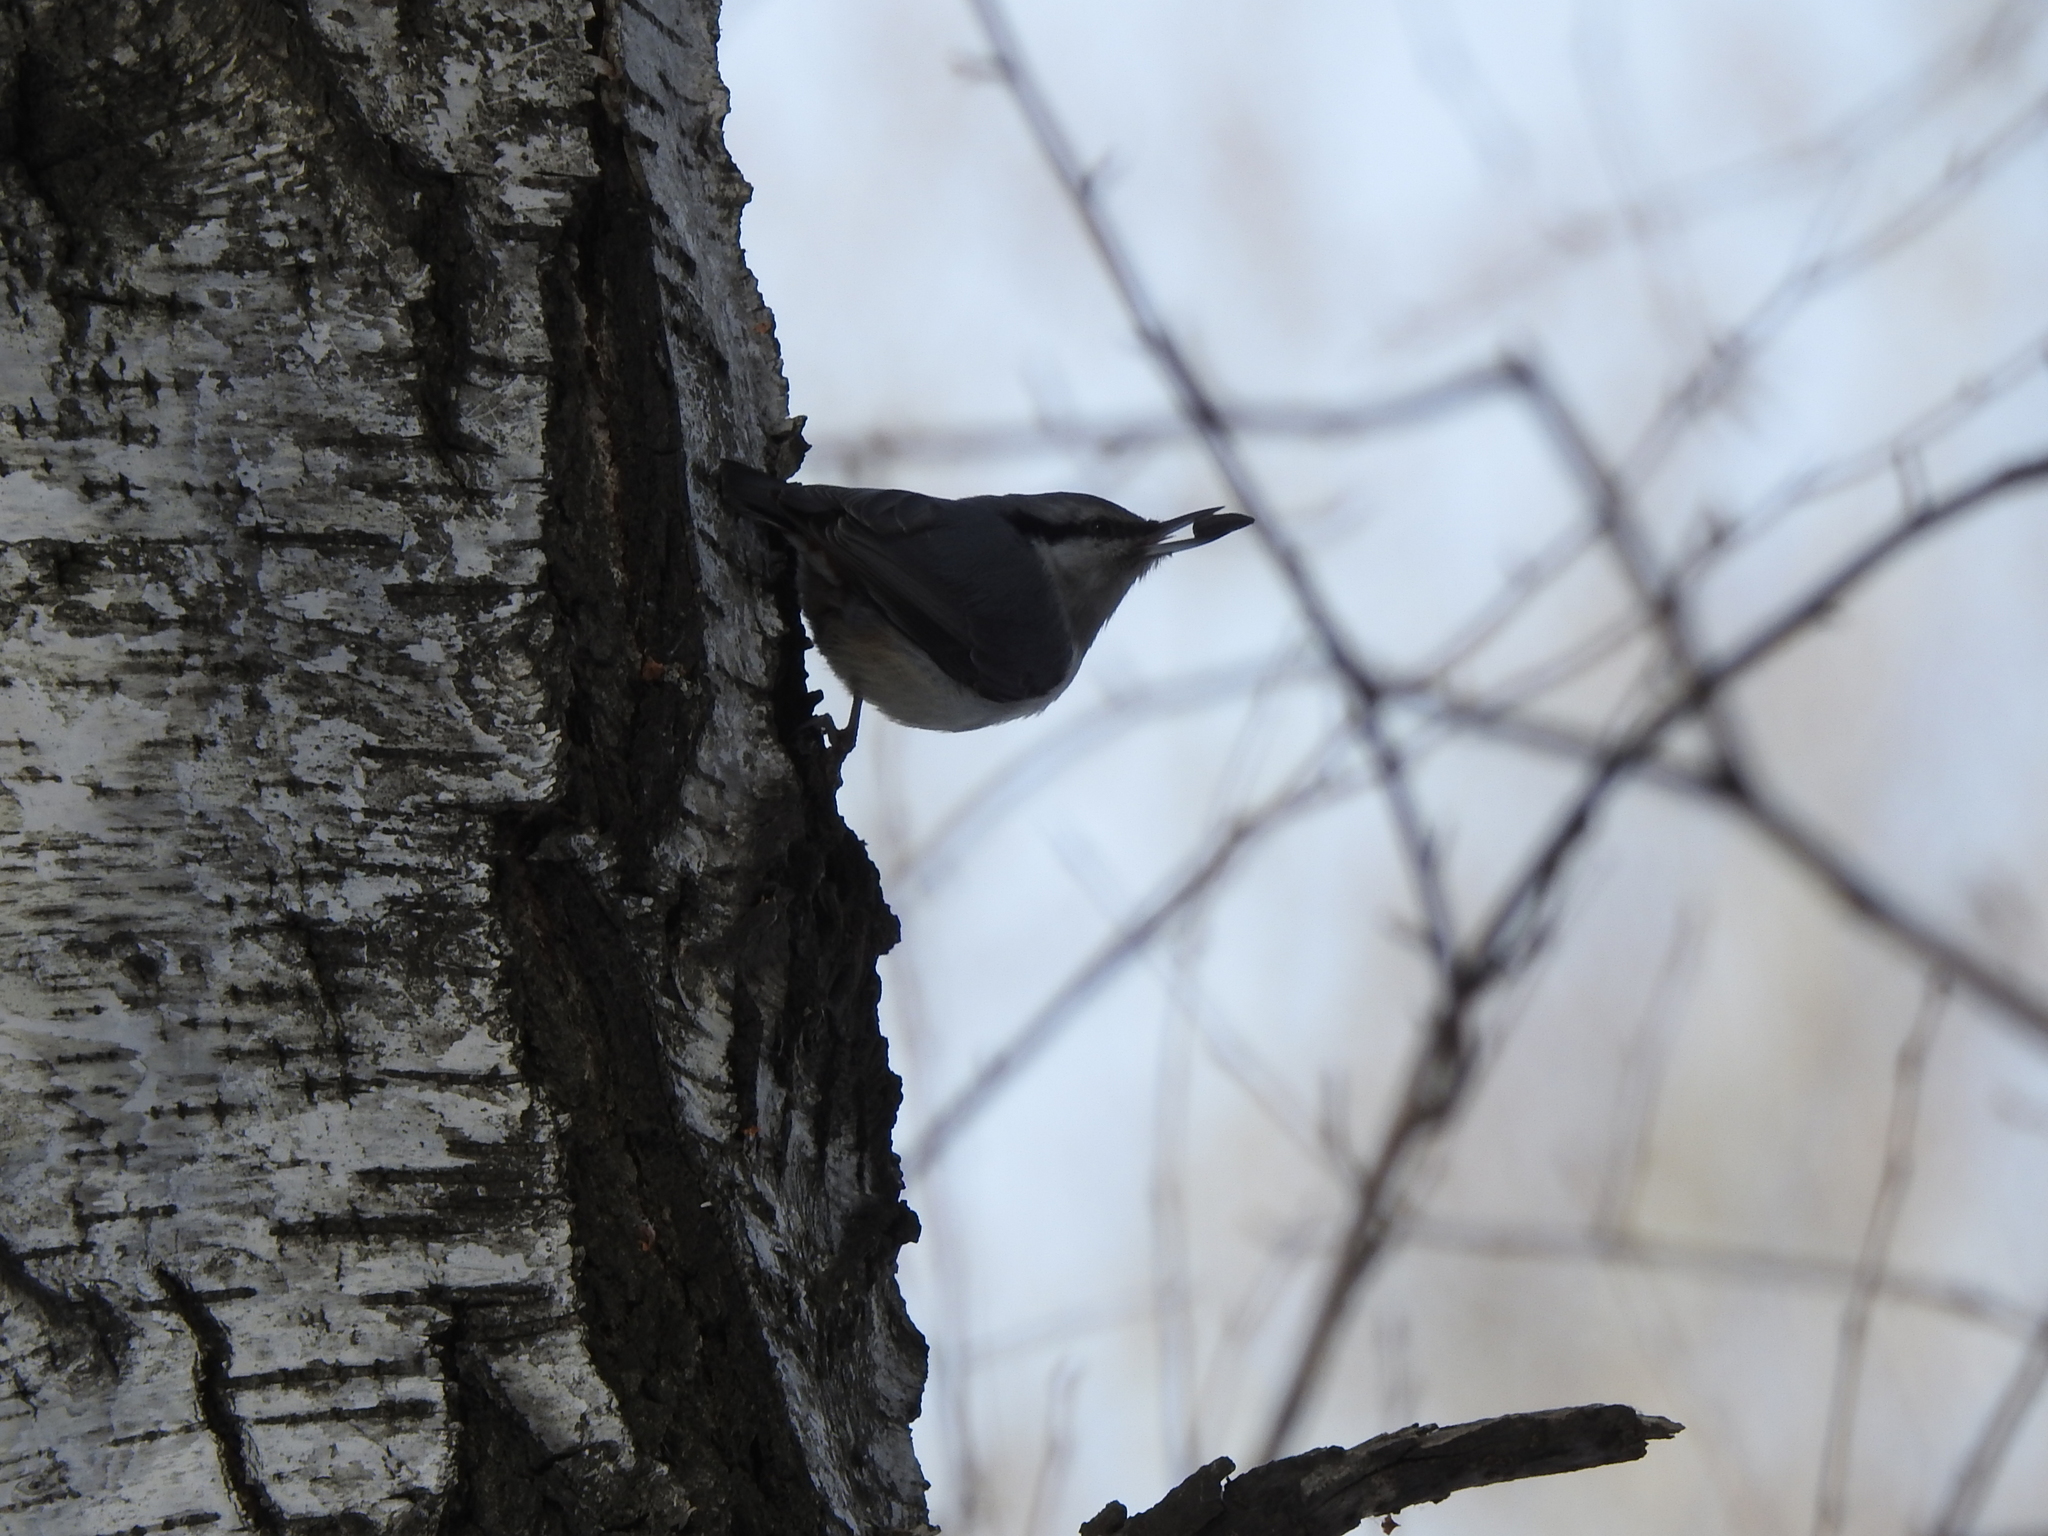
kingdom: Animalia
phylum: Chordata
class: Aves
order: Passeriformes
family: Sittidae
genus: Sitta
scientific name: Sitta europaea
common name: Eurasian nuthatch
